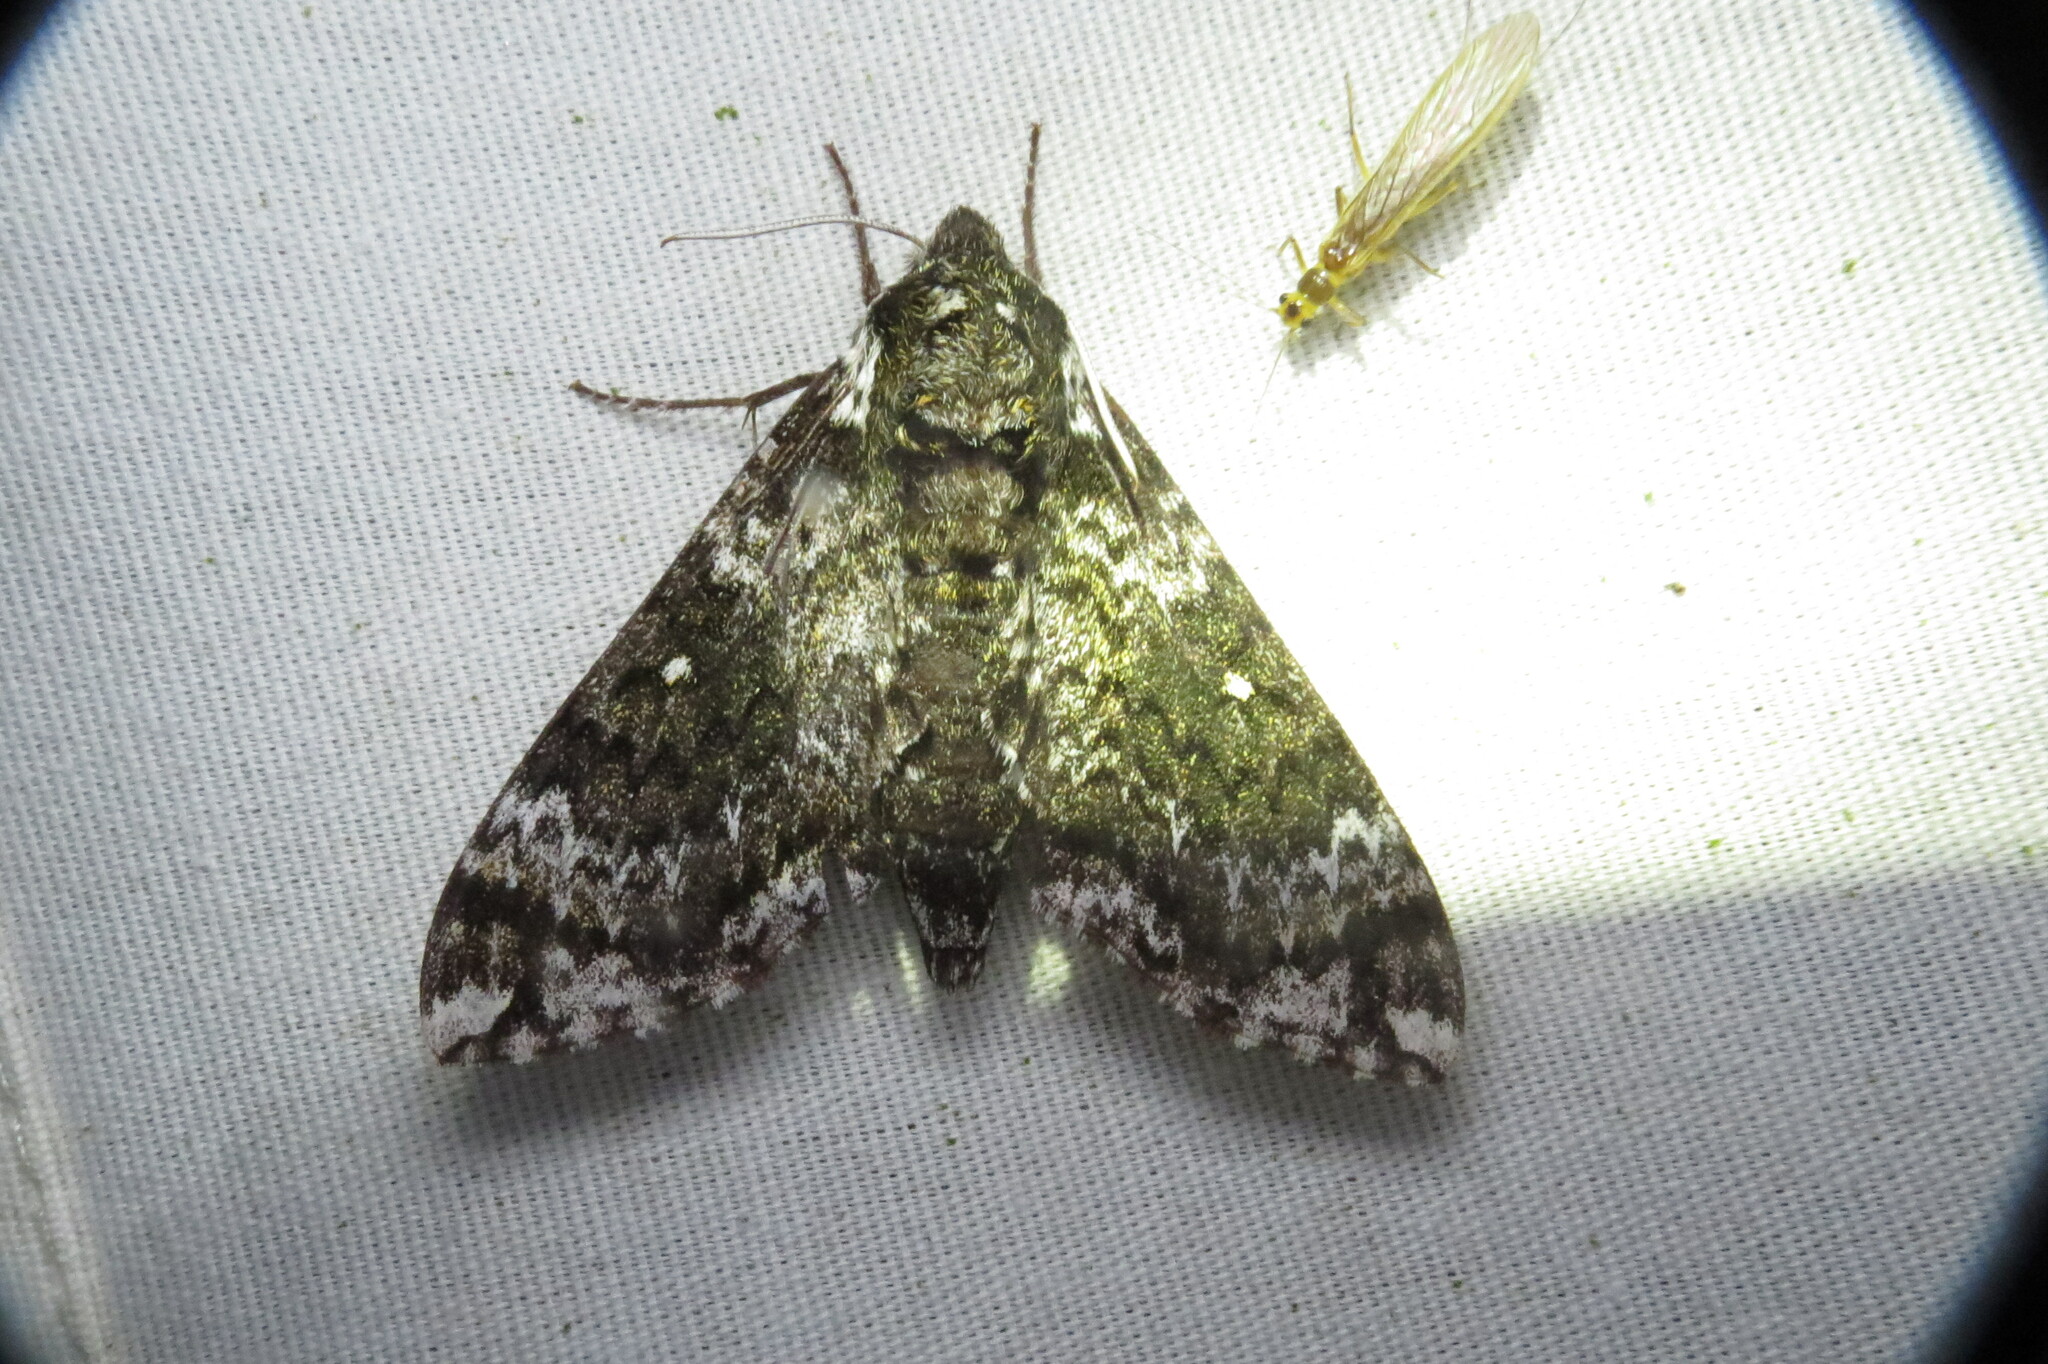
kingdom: Animalia
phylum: Arthropoda
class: Insecta
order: Lepidoptera
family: Sphingidae
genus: Dolba
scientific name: Dolba hyloeus
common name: Pawpaw sphinx
